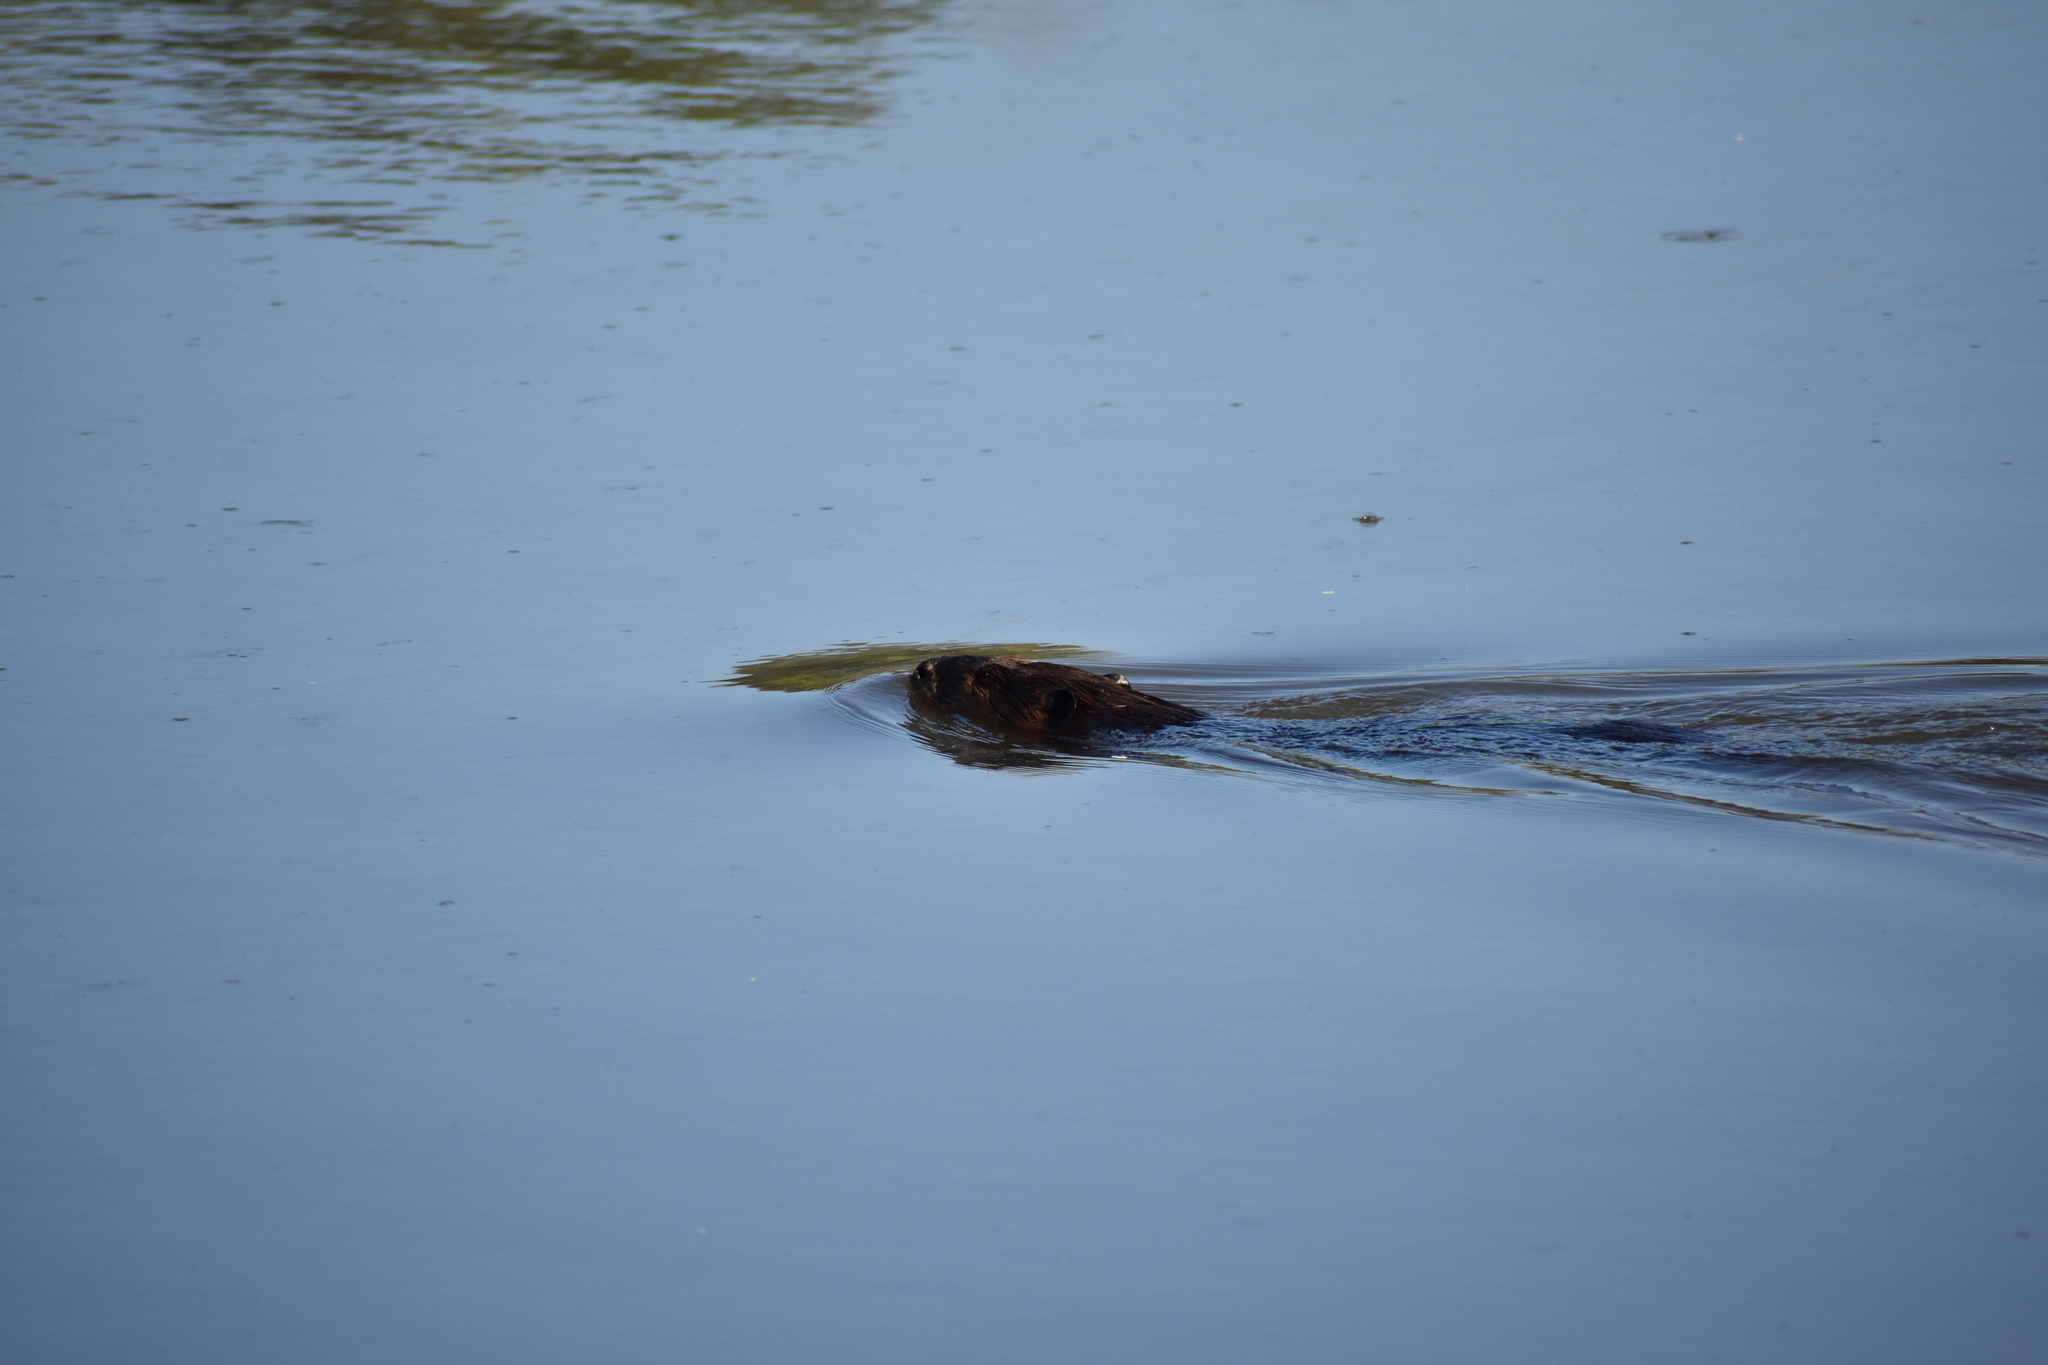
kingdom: Animalia
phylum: Chordata
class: Mammalia
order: Rodentia
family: Cricetidae
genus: Ondatra
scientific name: Ondatra zibethicus
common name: Muskrat
